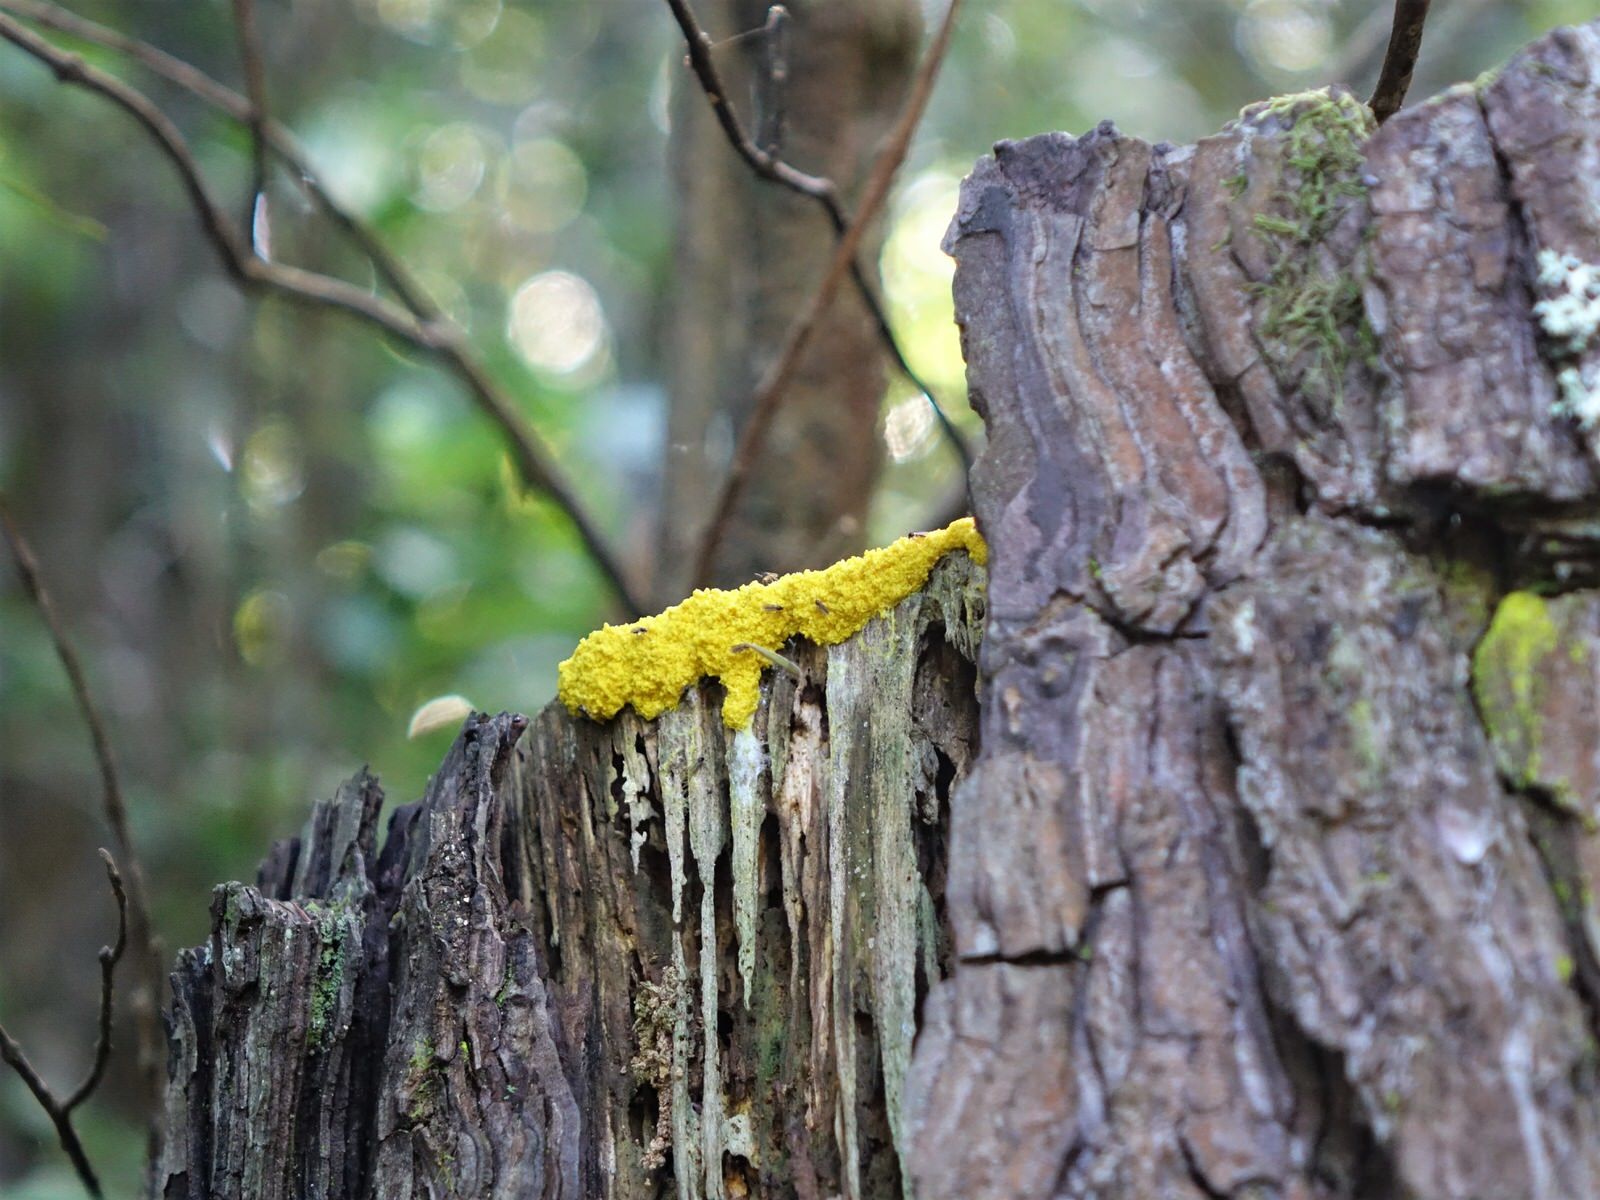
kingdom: Protozoa
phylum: Mycetozoa
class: Myxomycetes
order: Physarales
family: Physaraceae
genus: Fuligo
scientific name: Fuligo septica
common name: Dog vomit slime mold
